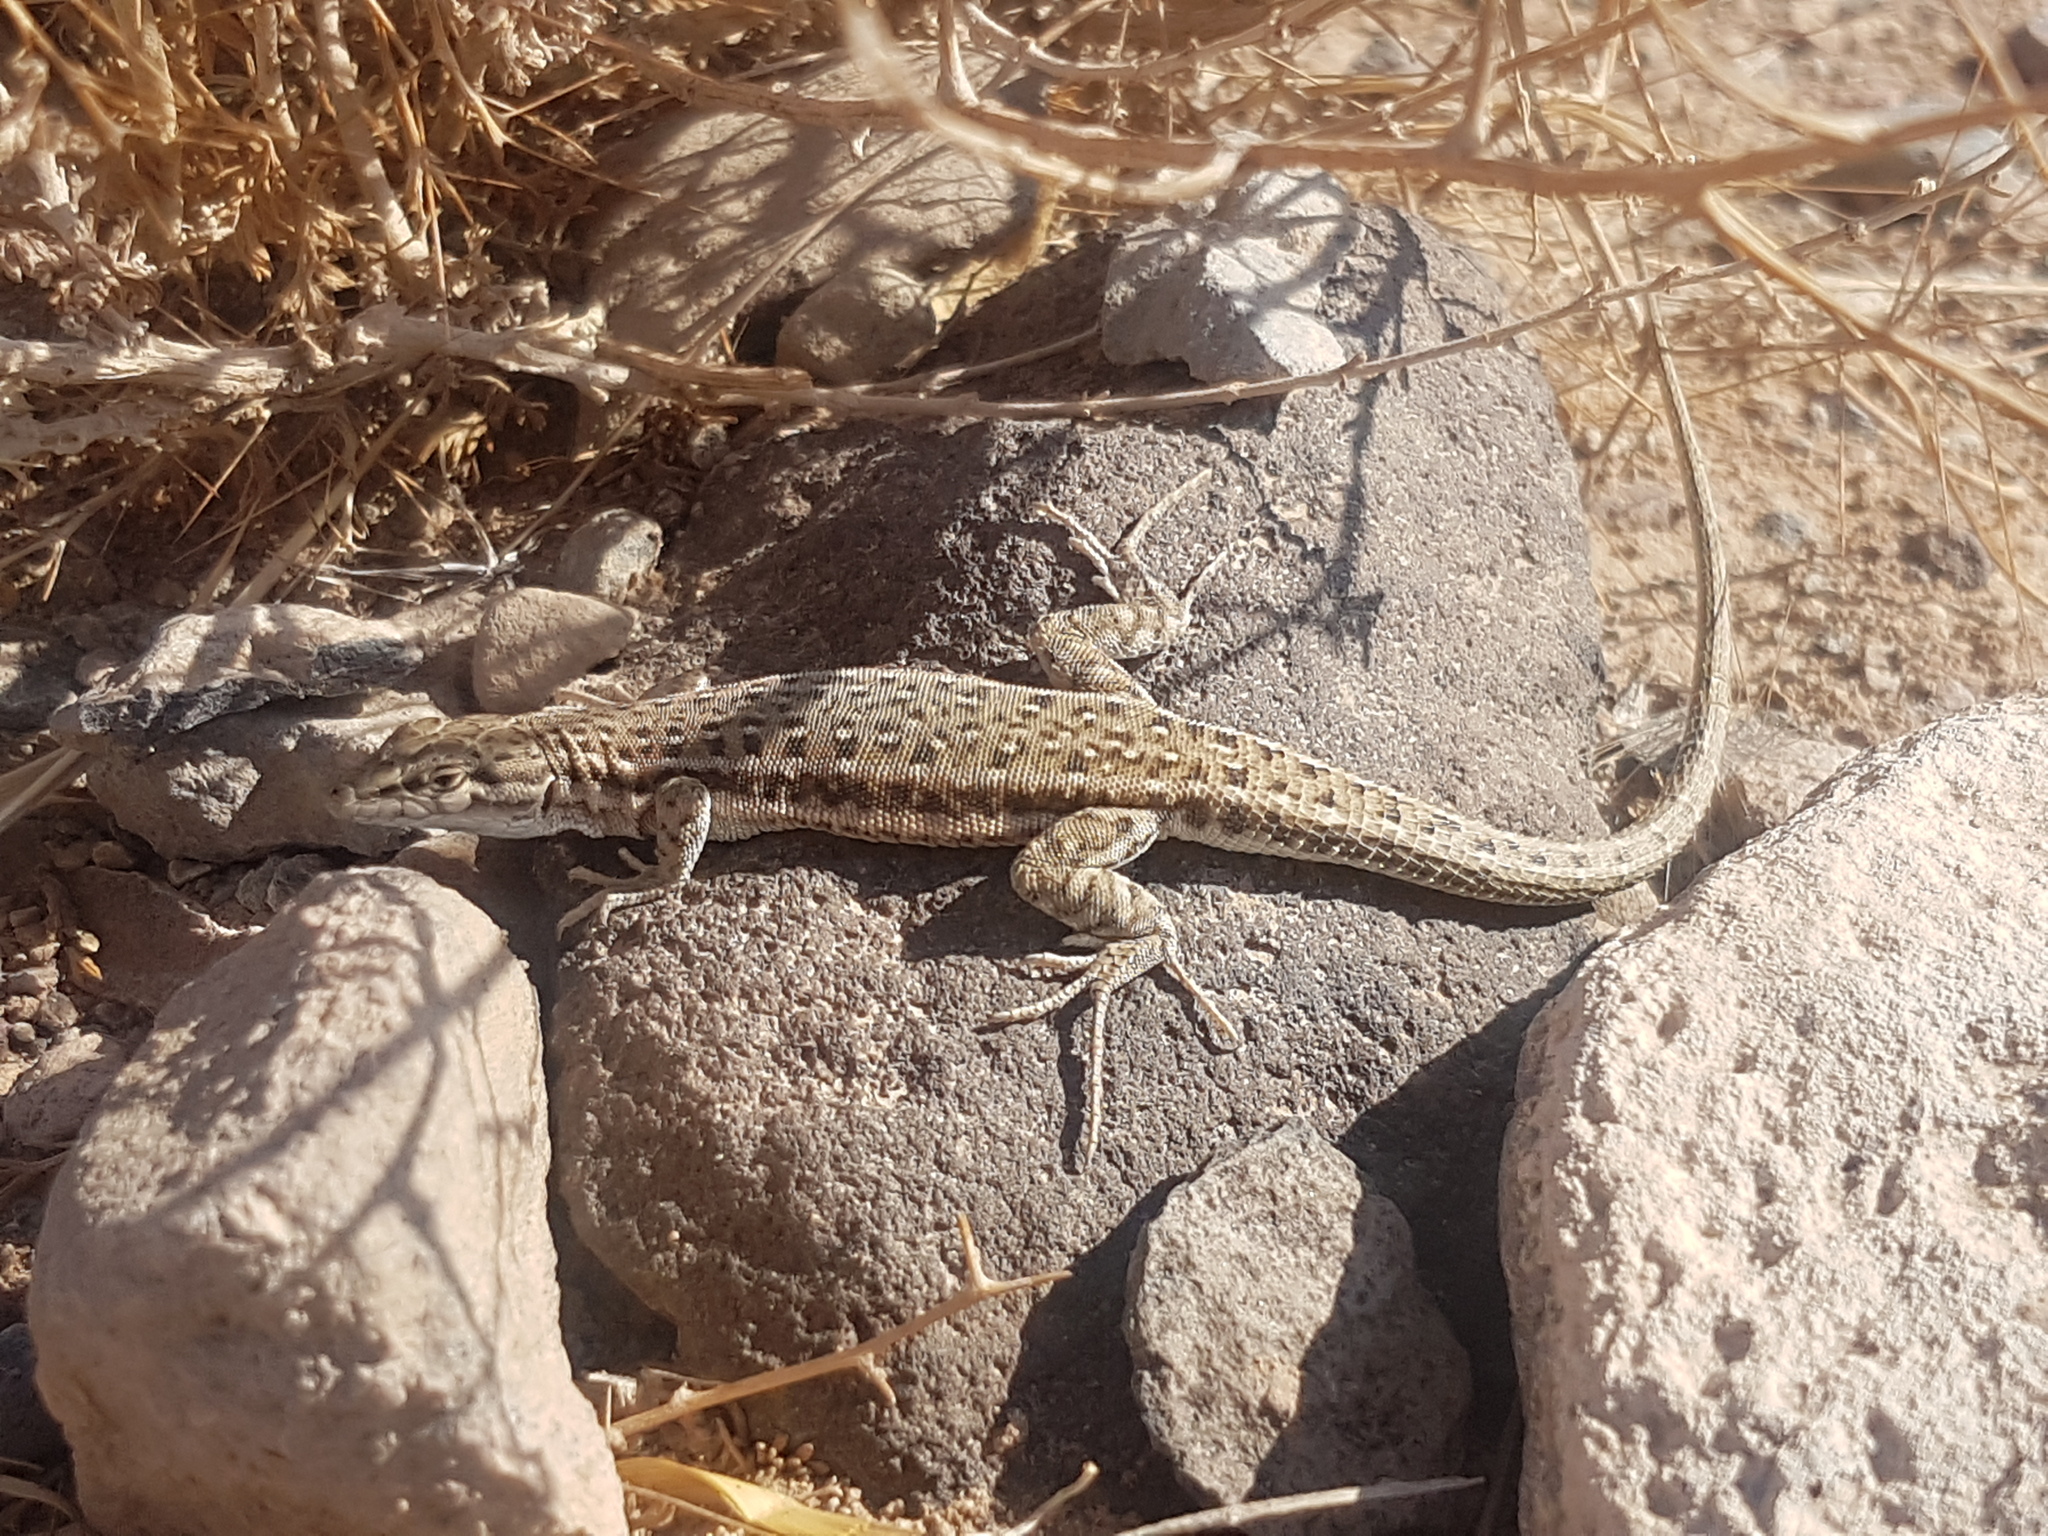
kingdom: Animalia
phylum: Chordata
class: Squamata
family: Lacertidae
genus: Mesalina
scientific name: Mesalina watsonana
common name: Persian long-tailed desert lizard
